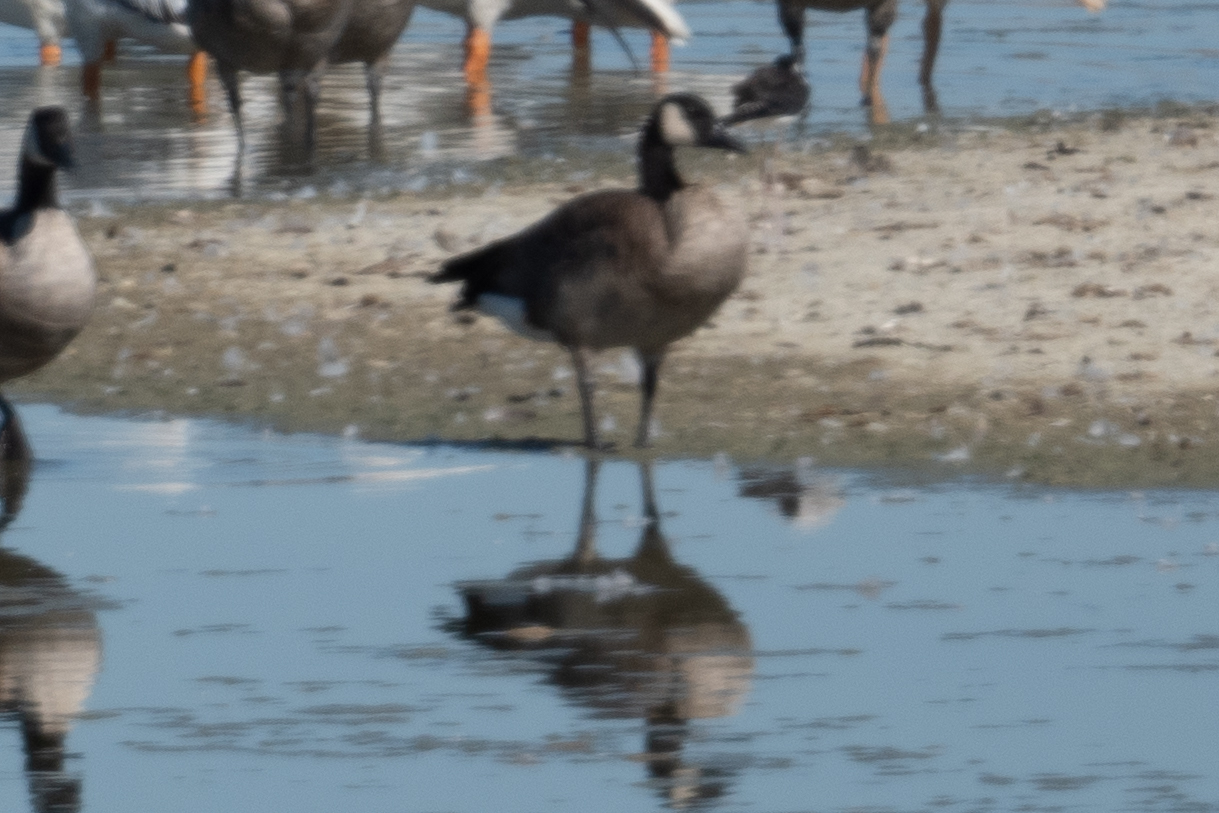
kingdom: Animalia
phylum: Chordata
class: Aves
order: Anseriformes
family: Anatidae
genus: Branta
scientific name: Branta canadensis
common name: Canada goose
